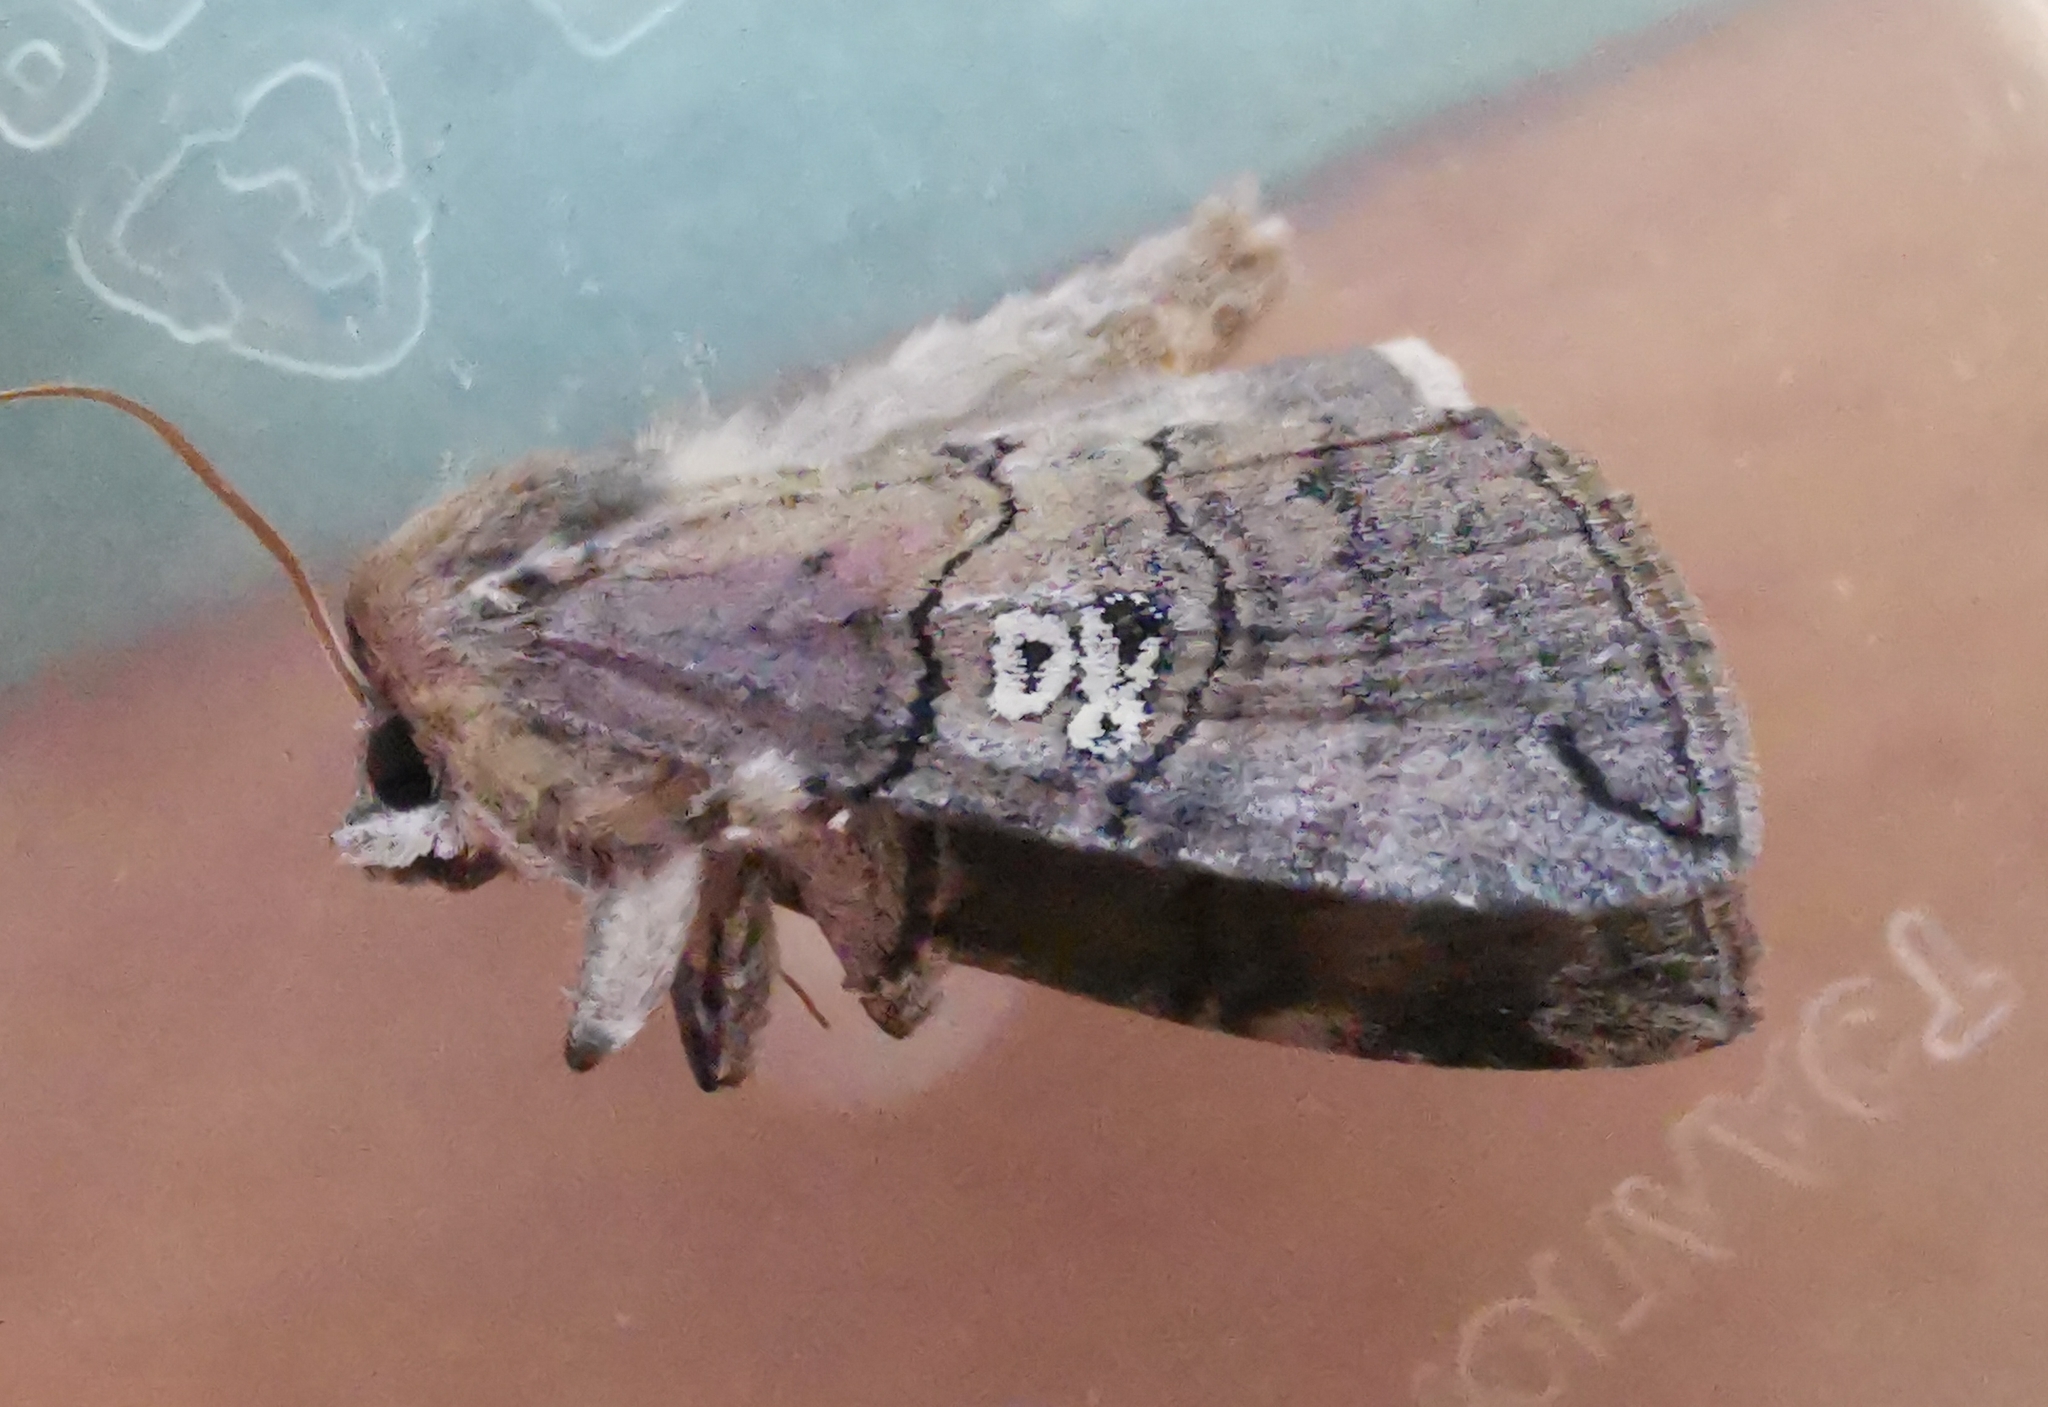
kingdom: Animalia
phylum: Arthropoda
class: Insecta
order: Lepidoptera
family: Drepanidae
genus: Tethea
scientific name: Tethea ocularis
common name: Figure of eighty
